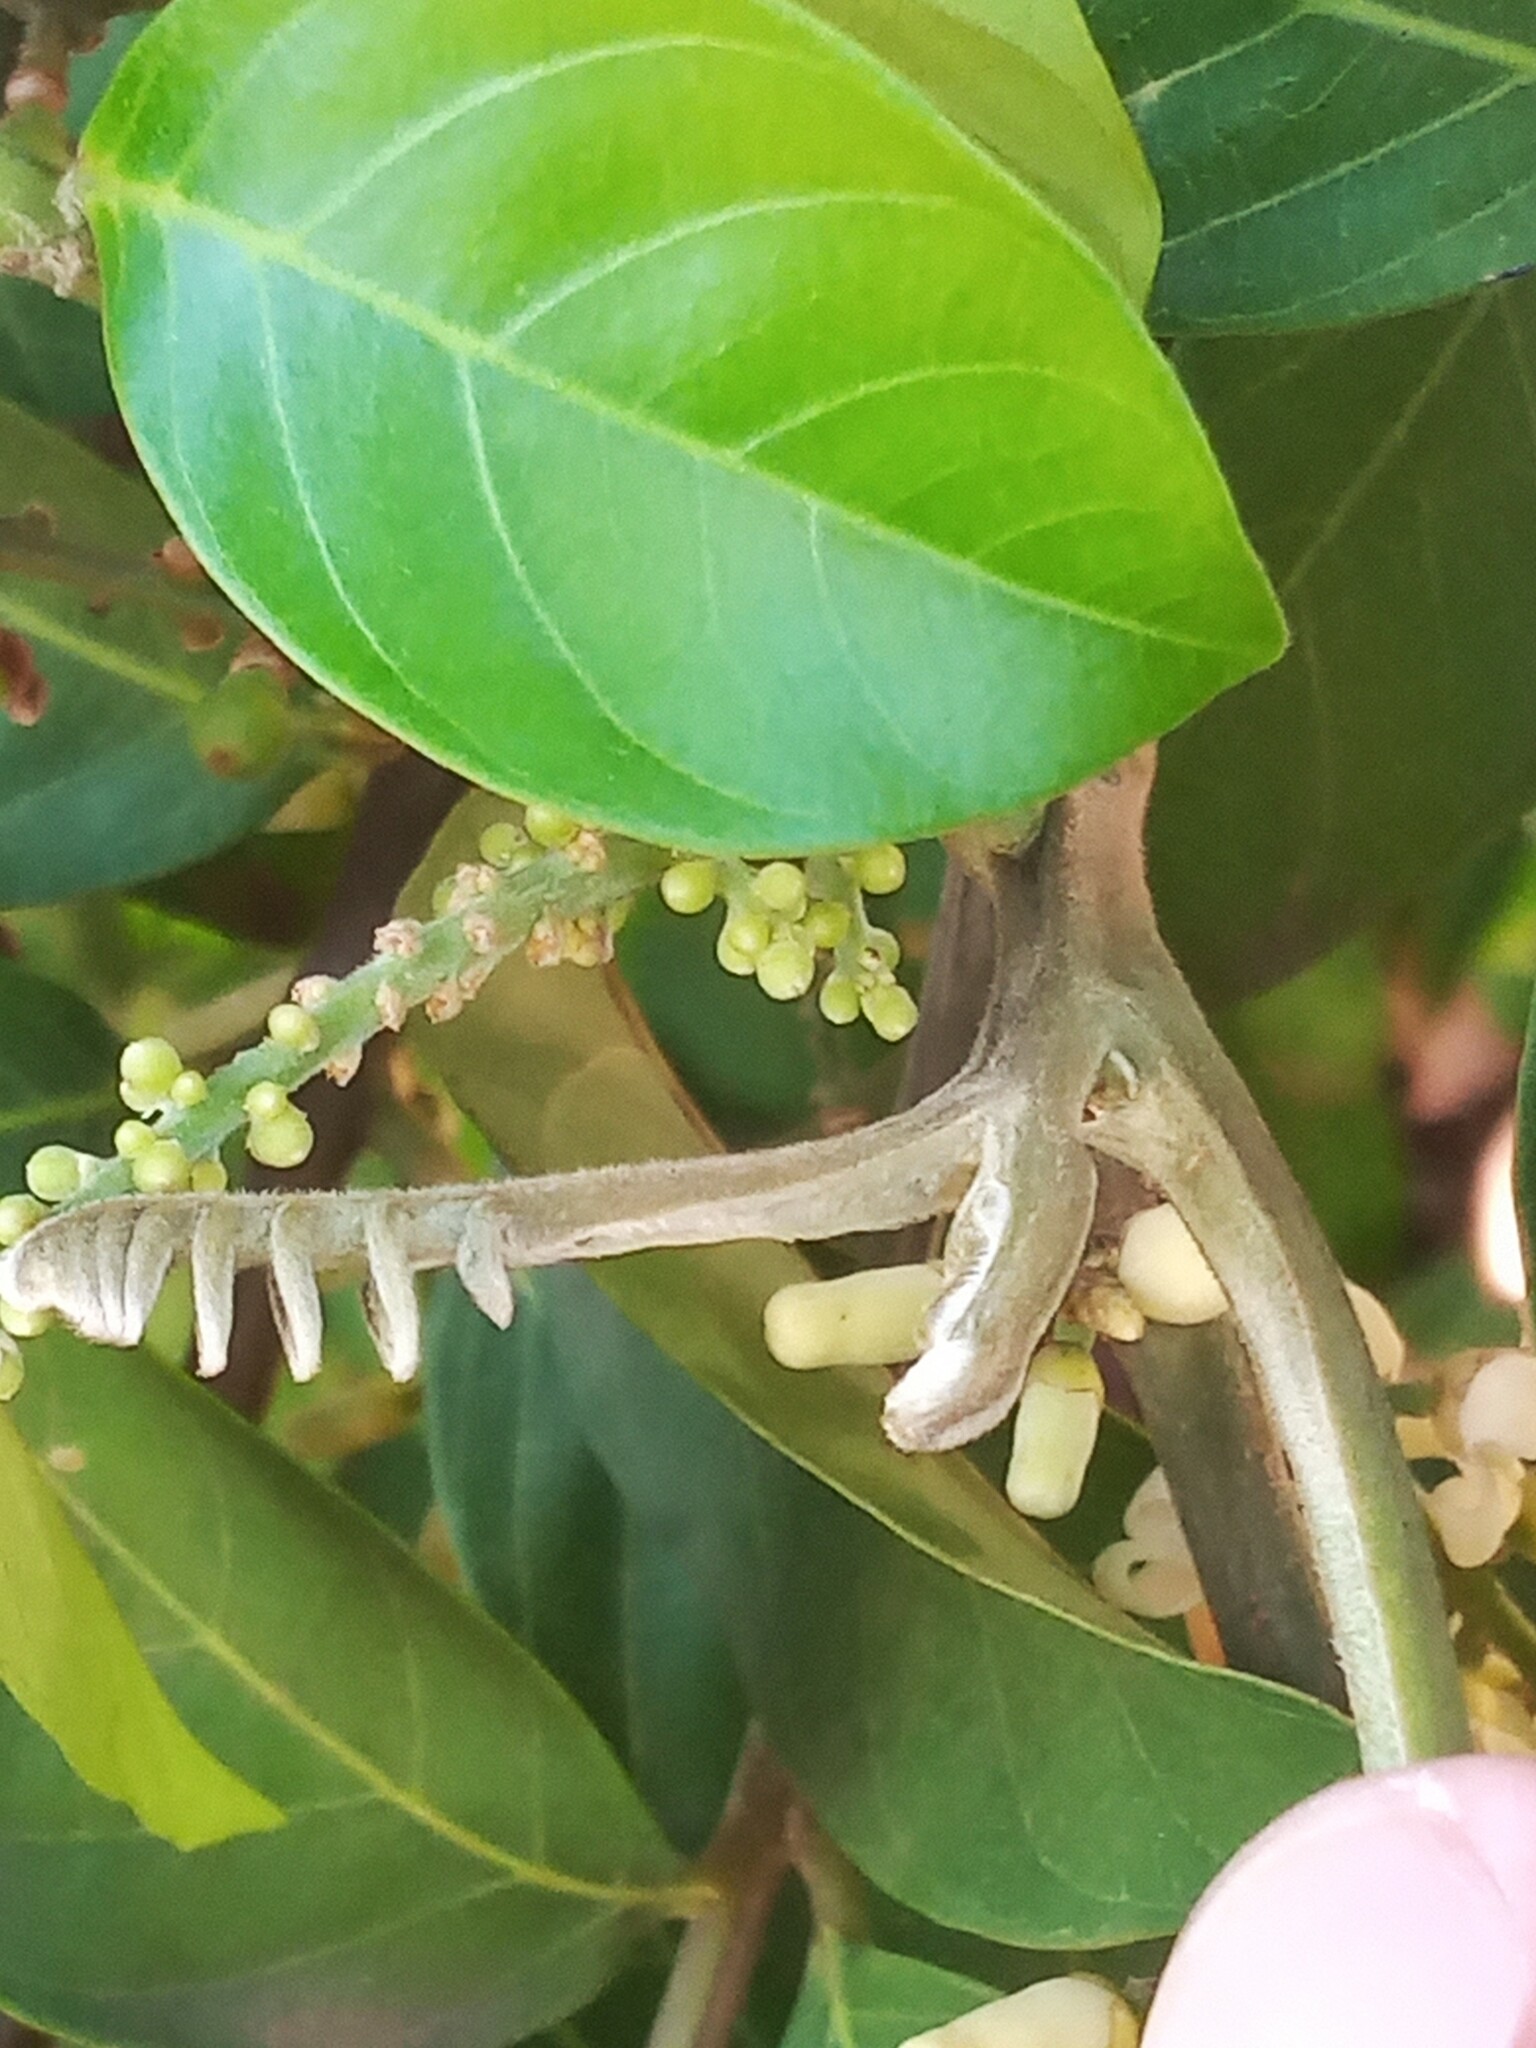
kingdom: Plantae
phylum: Tracheophyta
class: Magnoliopsida
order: Sapindales
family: Meliaceae
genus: Guarea
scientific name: Guarea guidonia
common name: American muskwood
